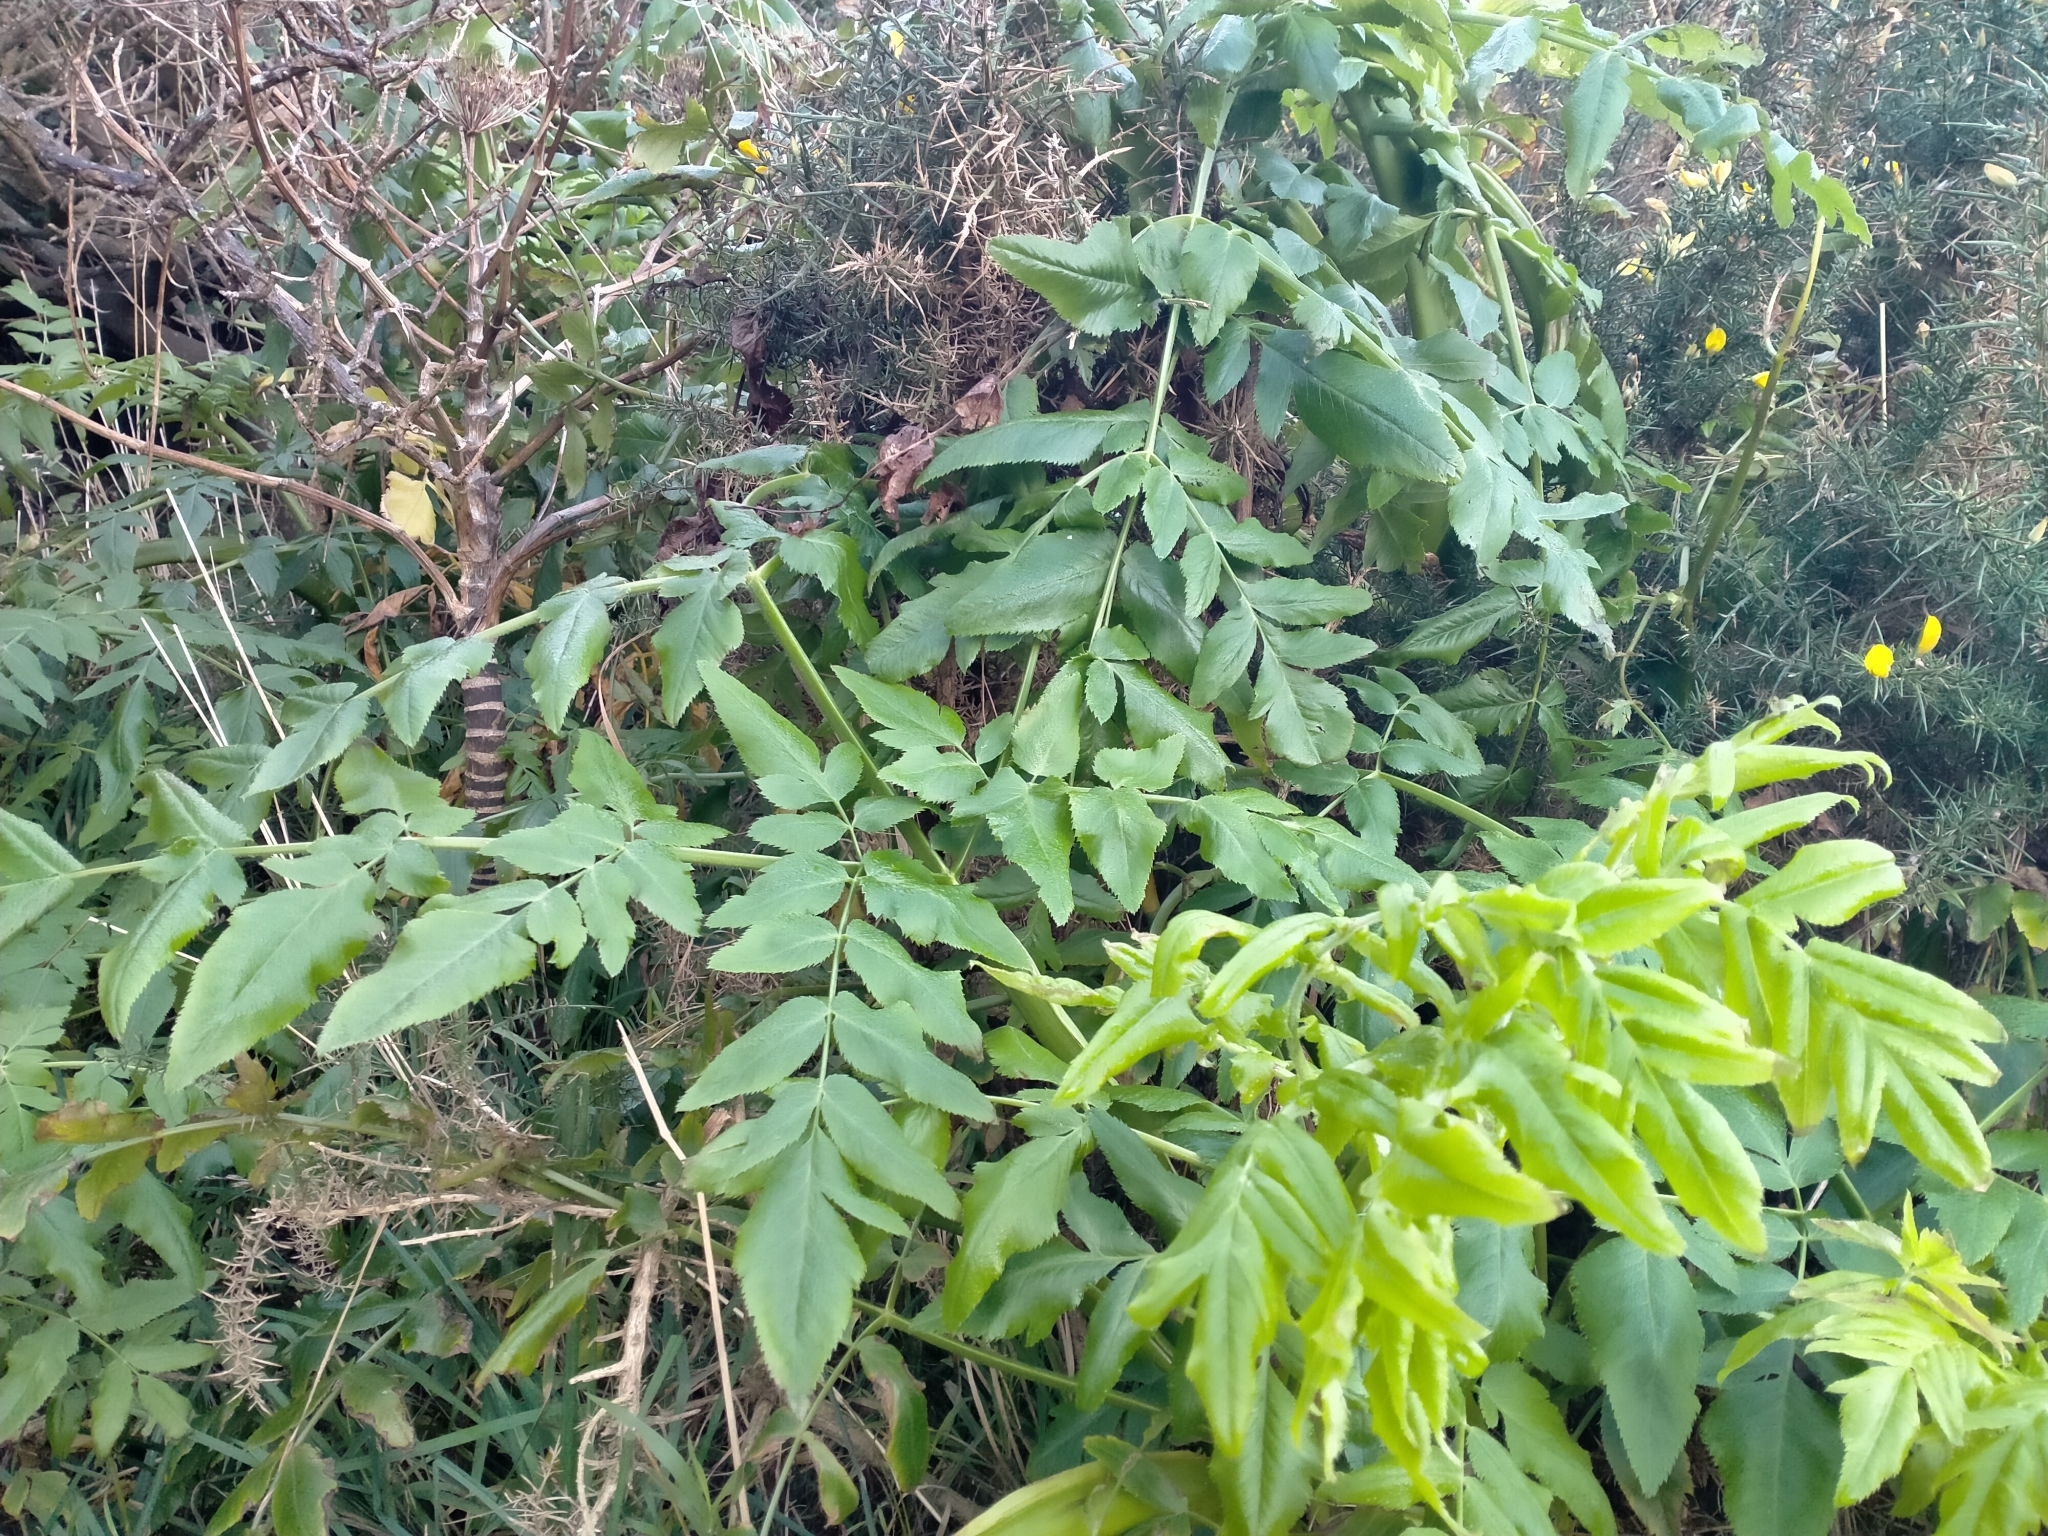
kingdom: Plantae
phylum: Tracheophyta
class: Magnoliopsida
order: Apiales
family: Apiaceae
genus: Daucus
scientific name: Daucus decipiens
